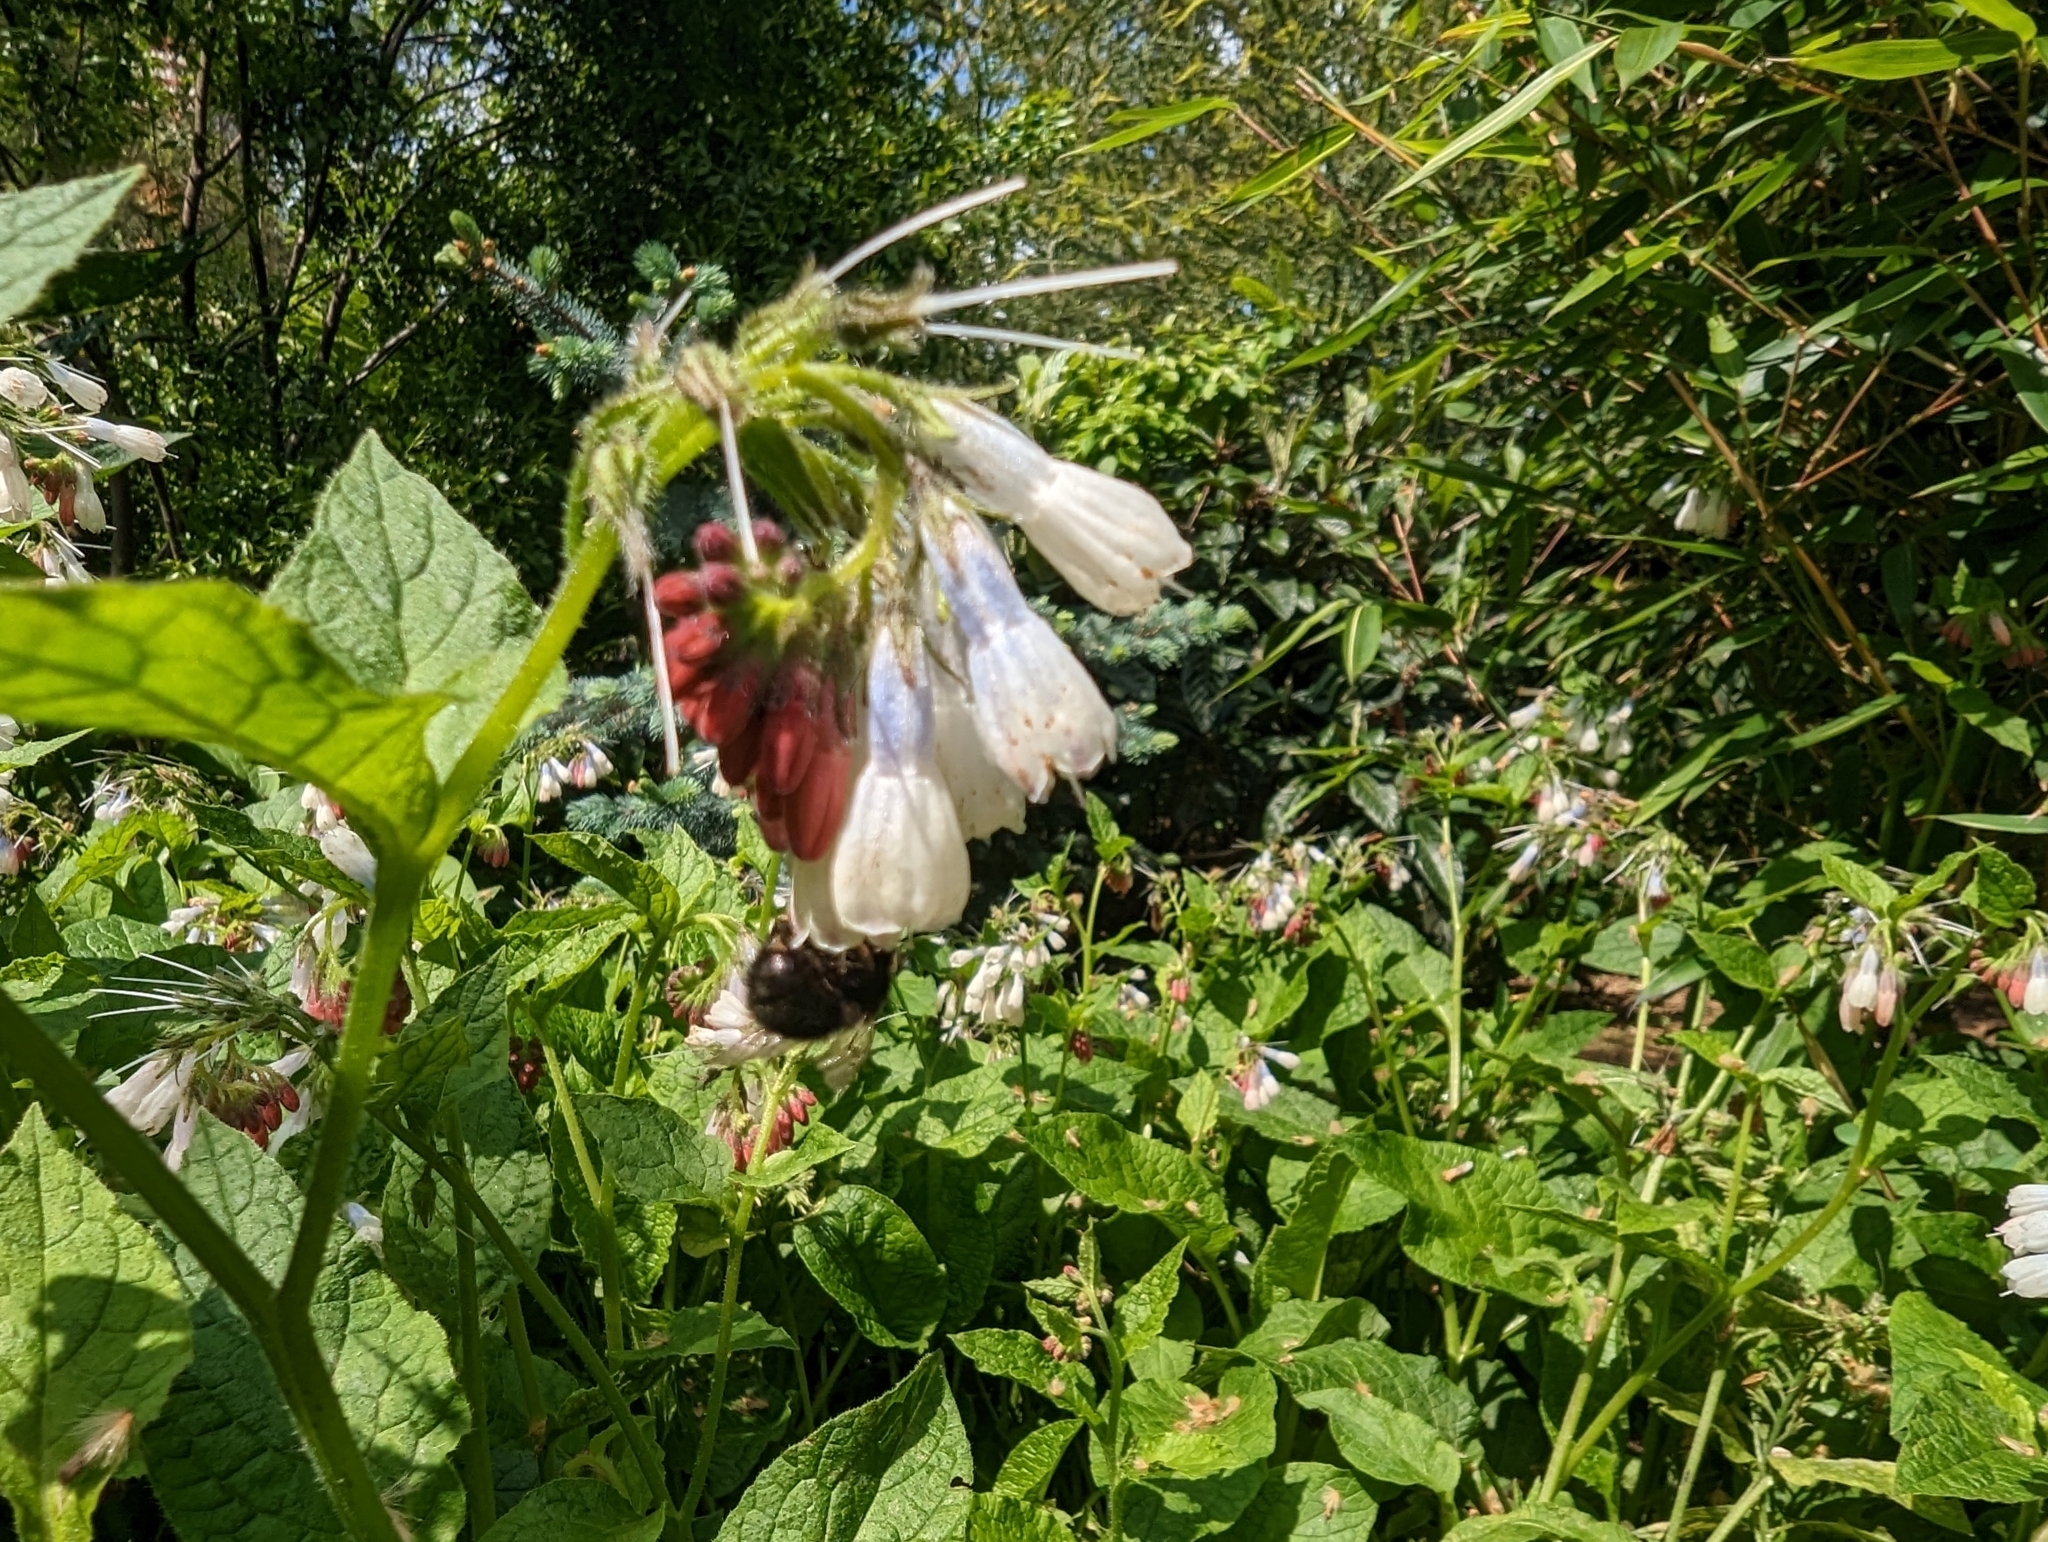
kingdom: Animalia
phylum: Arthropoda
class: Insecta
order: Hymenoptera
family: Apidae
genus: Anthophora
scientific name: Anthophora plumipes
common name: Hairy-footed flower bee
